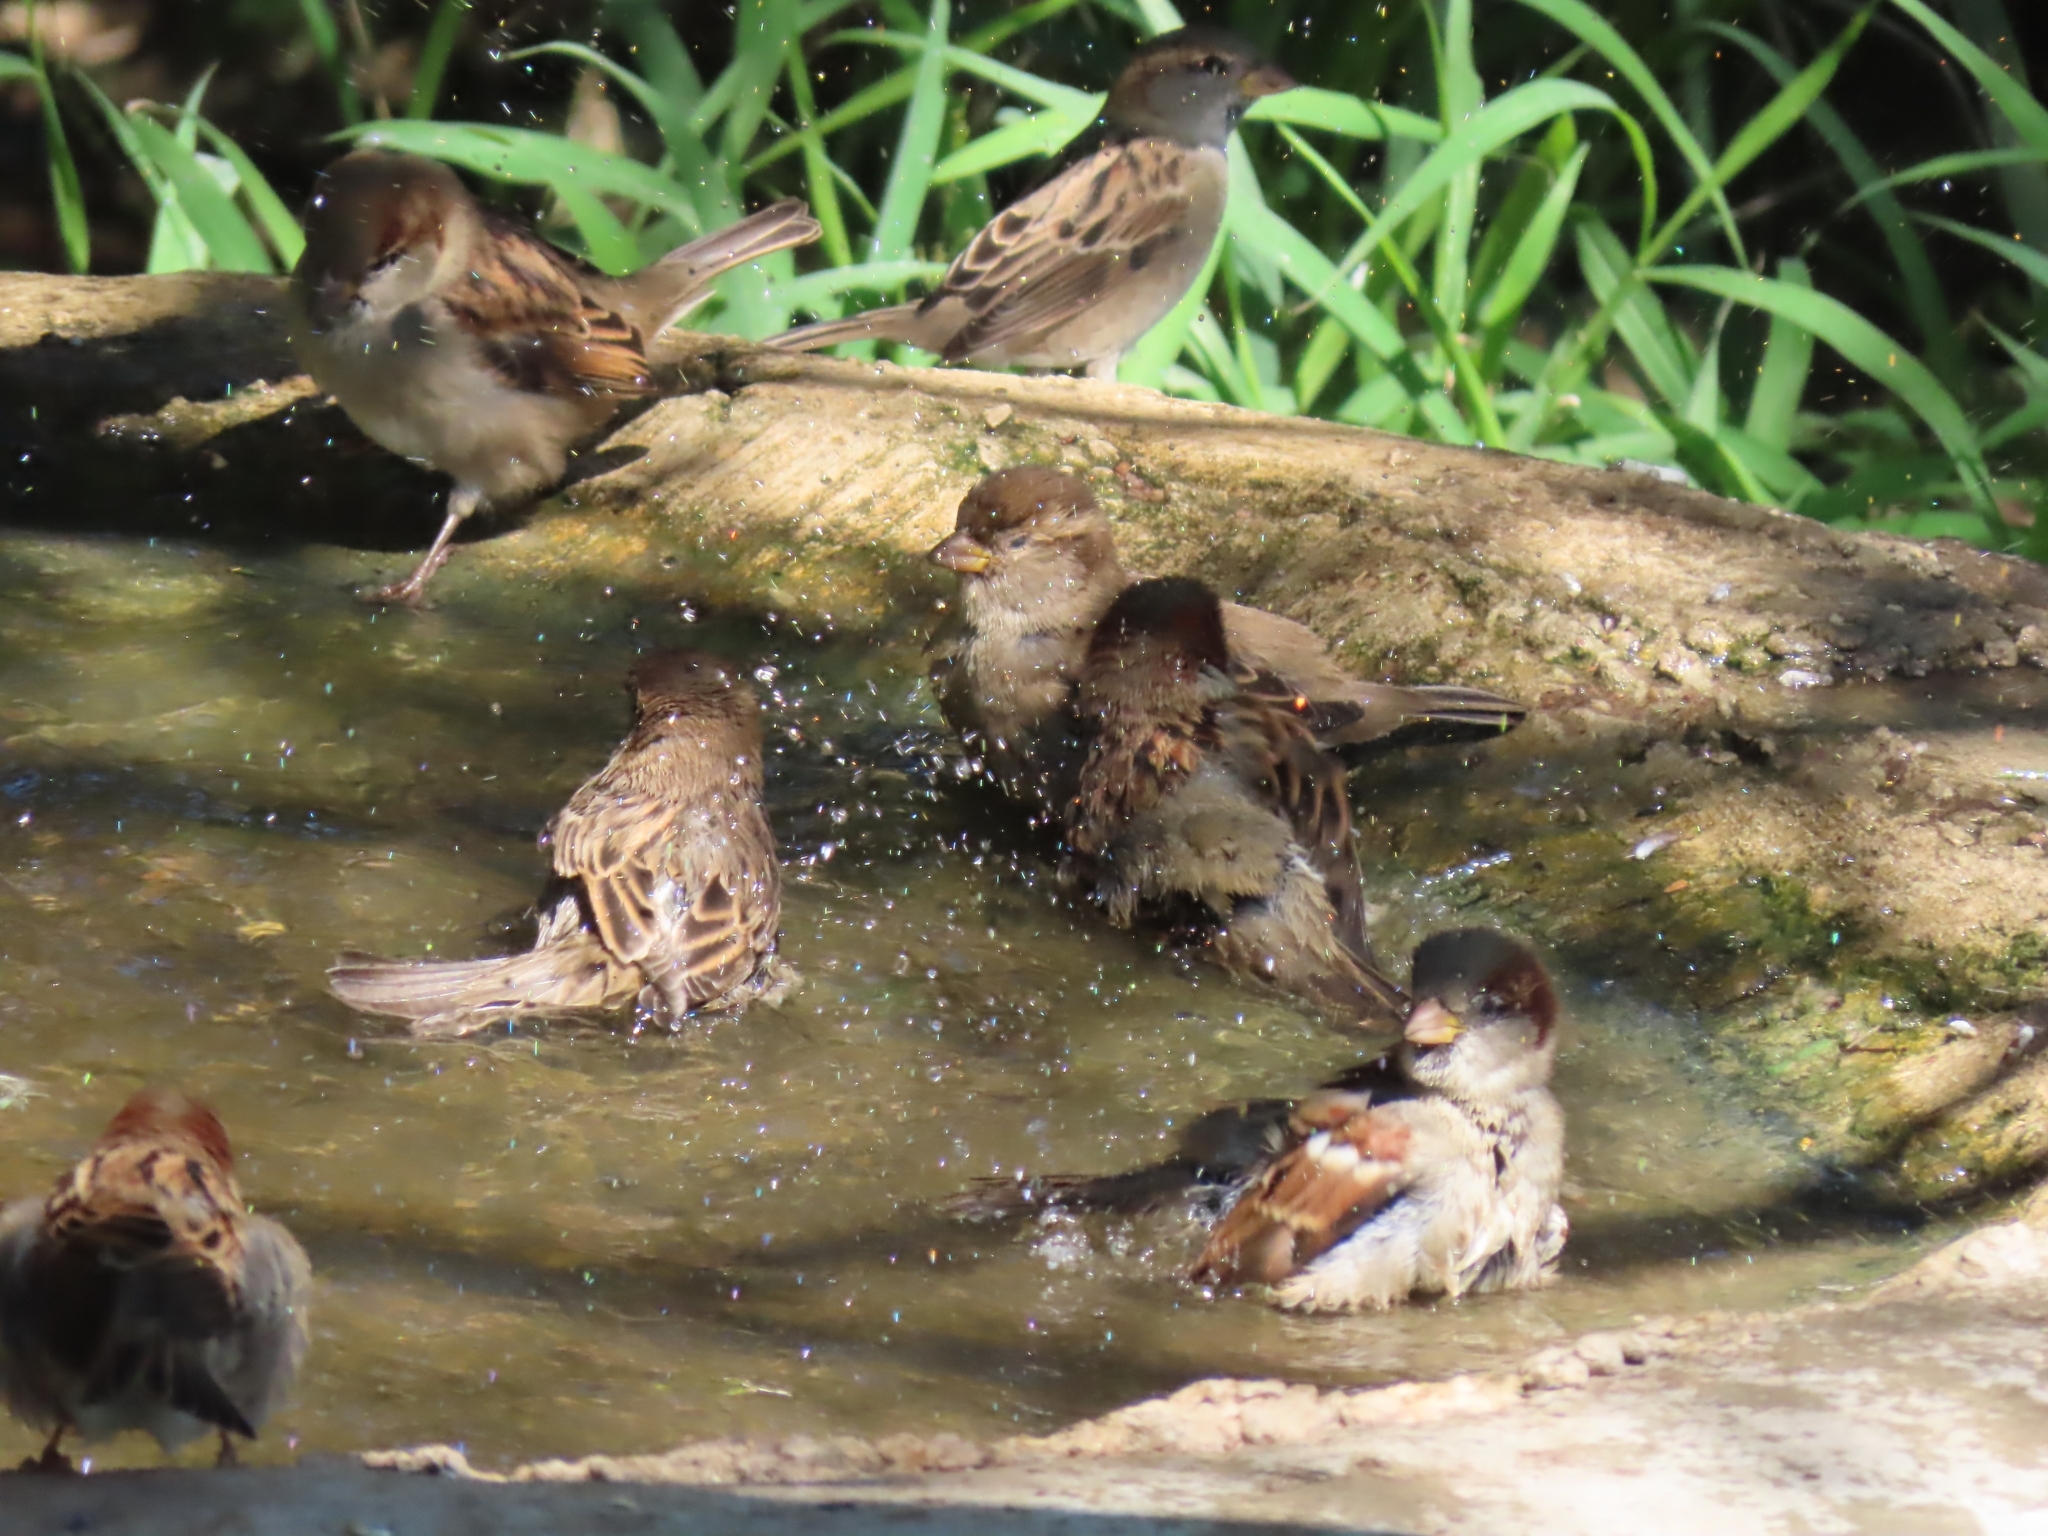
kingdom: Animalia
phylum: Chordata
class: Aves
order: Passeriformes
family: Passeridae
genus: Passer
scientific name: Passer domesticus
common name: House sparrow
